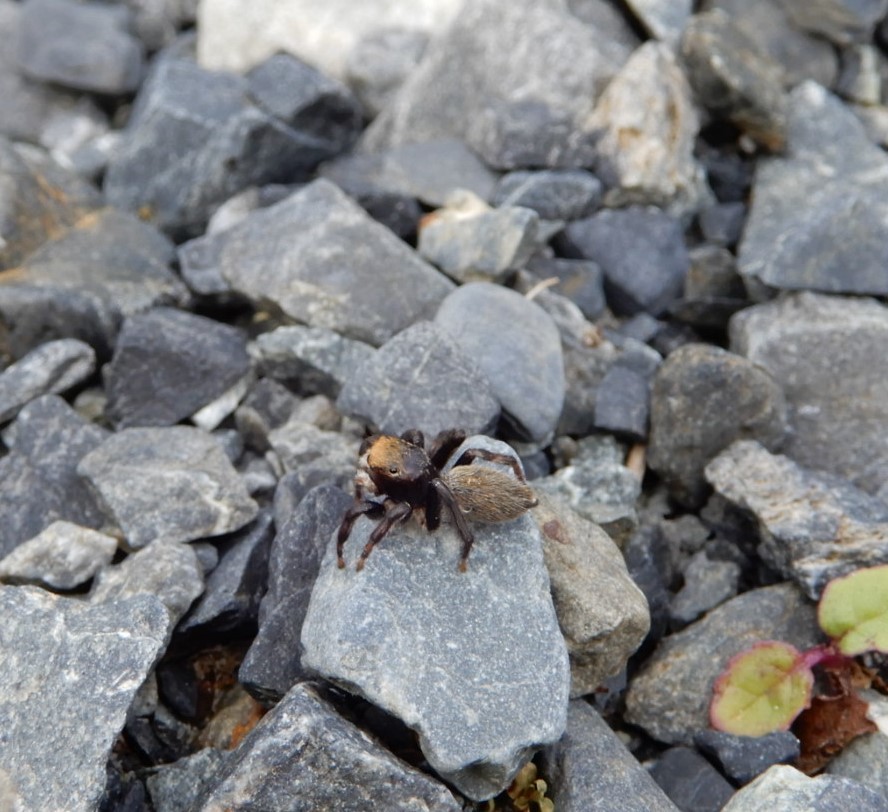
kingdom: Animalia
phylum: Arthropoda
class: Arachnida
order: Araneae
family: Salticidae
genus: Maratus
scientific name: Maratus griseus
